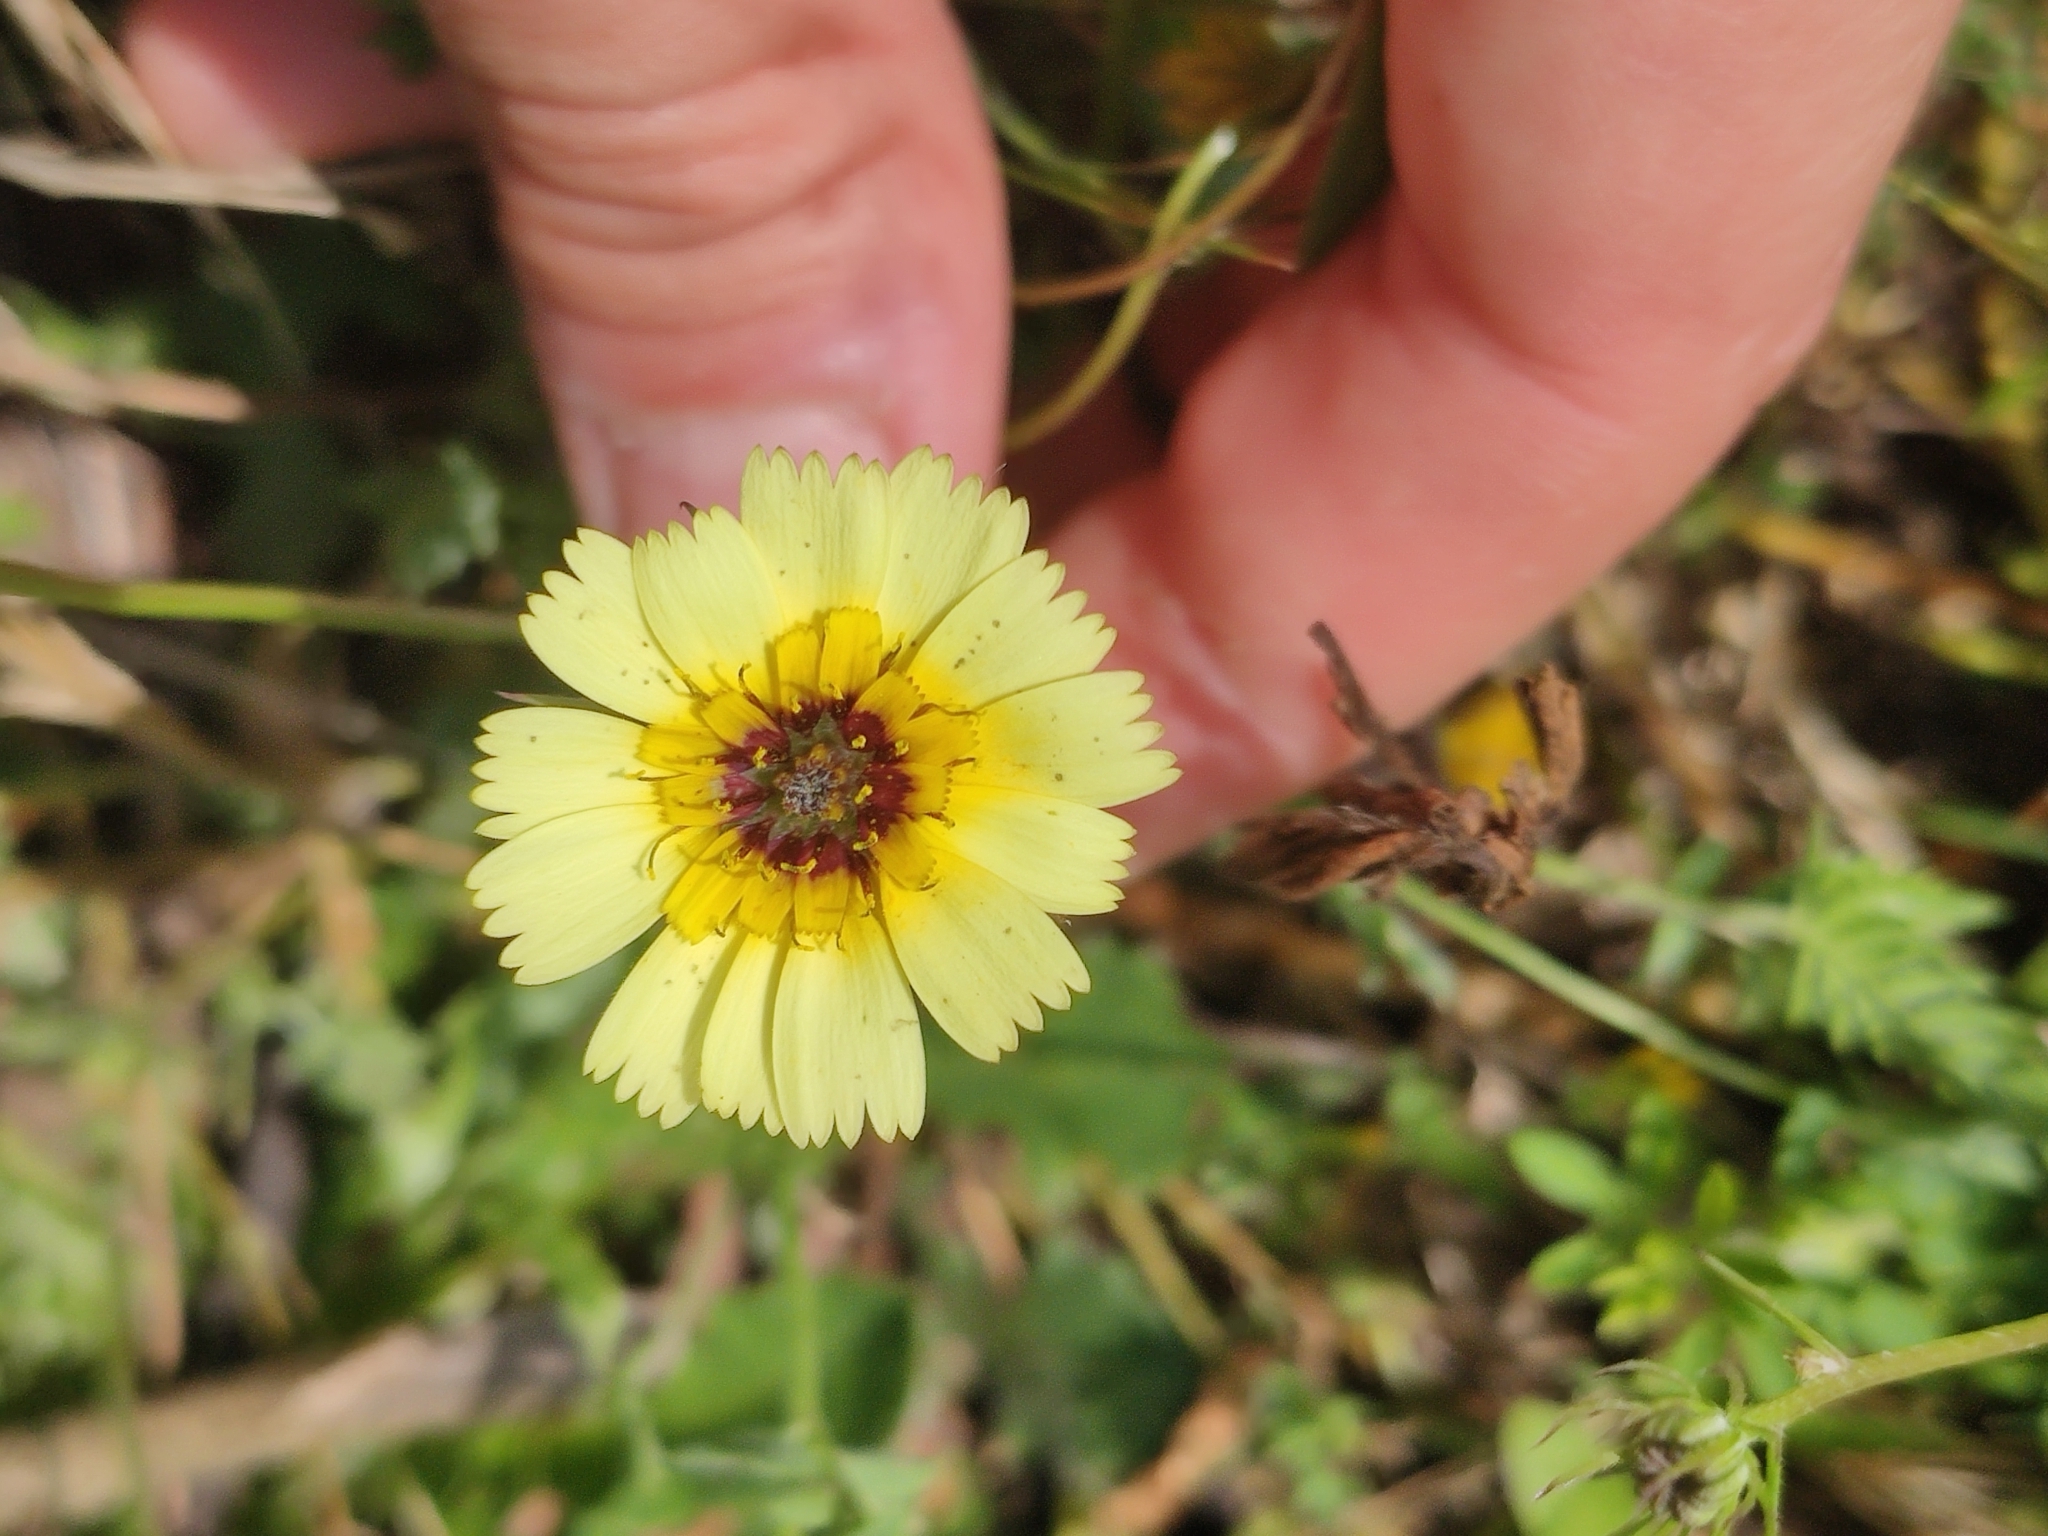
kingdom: Plantae
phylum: Tracheophyta
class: Magnoliopsida
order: Asterales
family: Asteraceae
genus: Tolpis
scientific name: Tolpis barbata
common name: Yellow hawkweed
